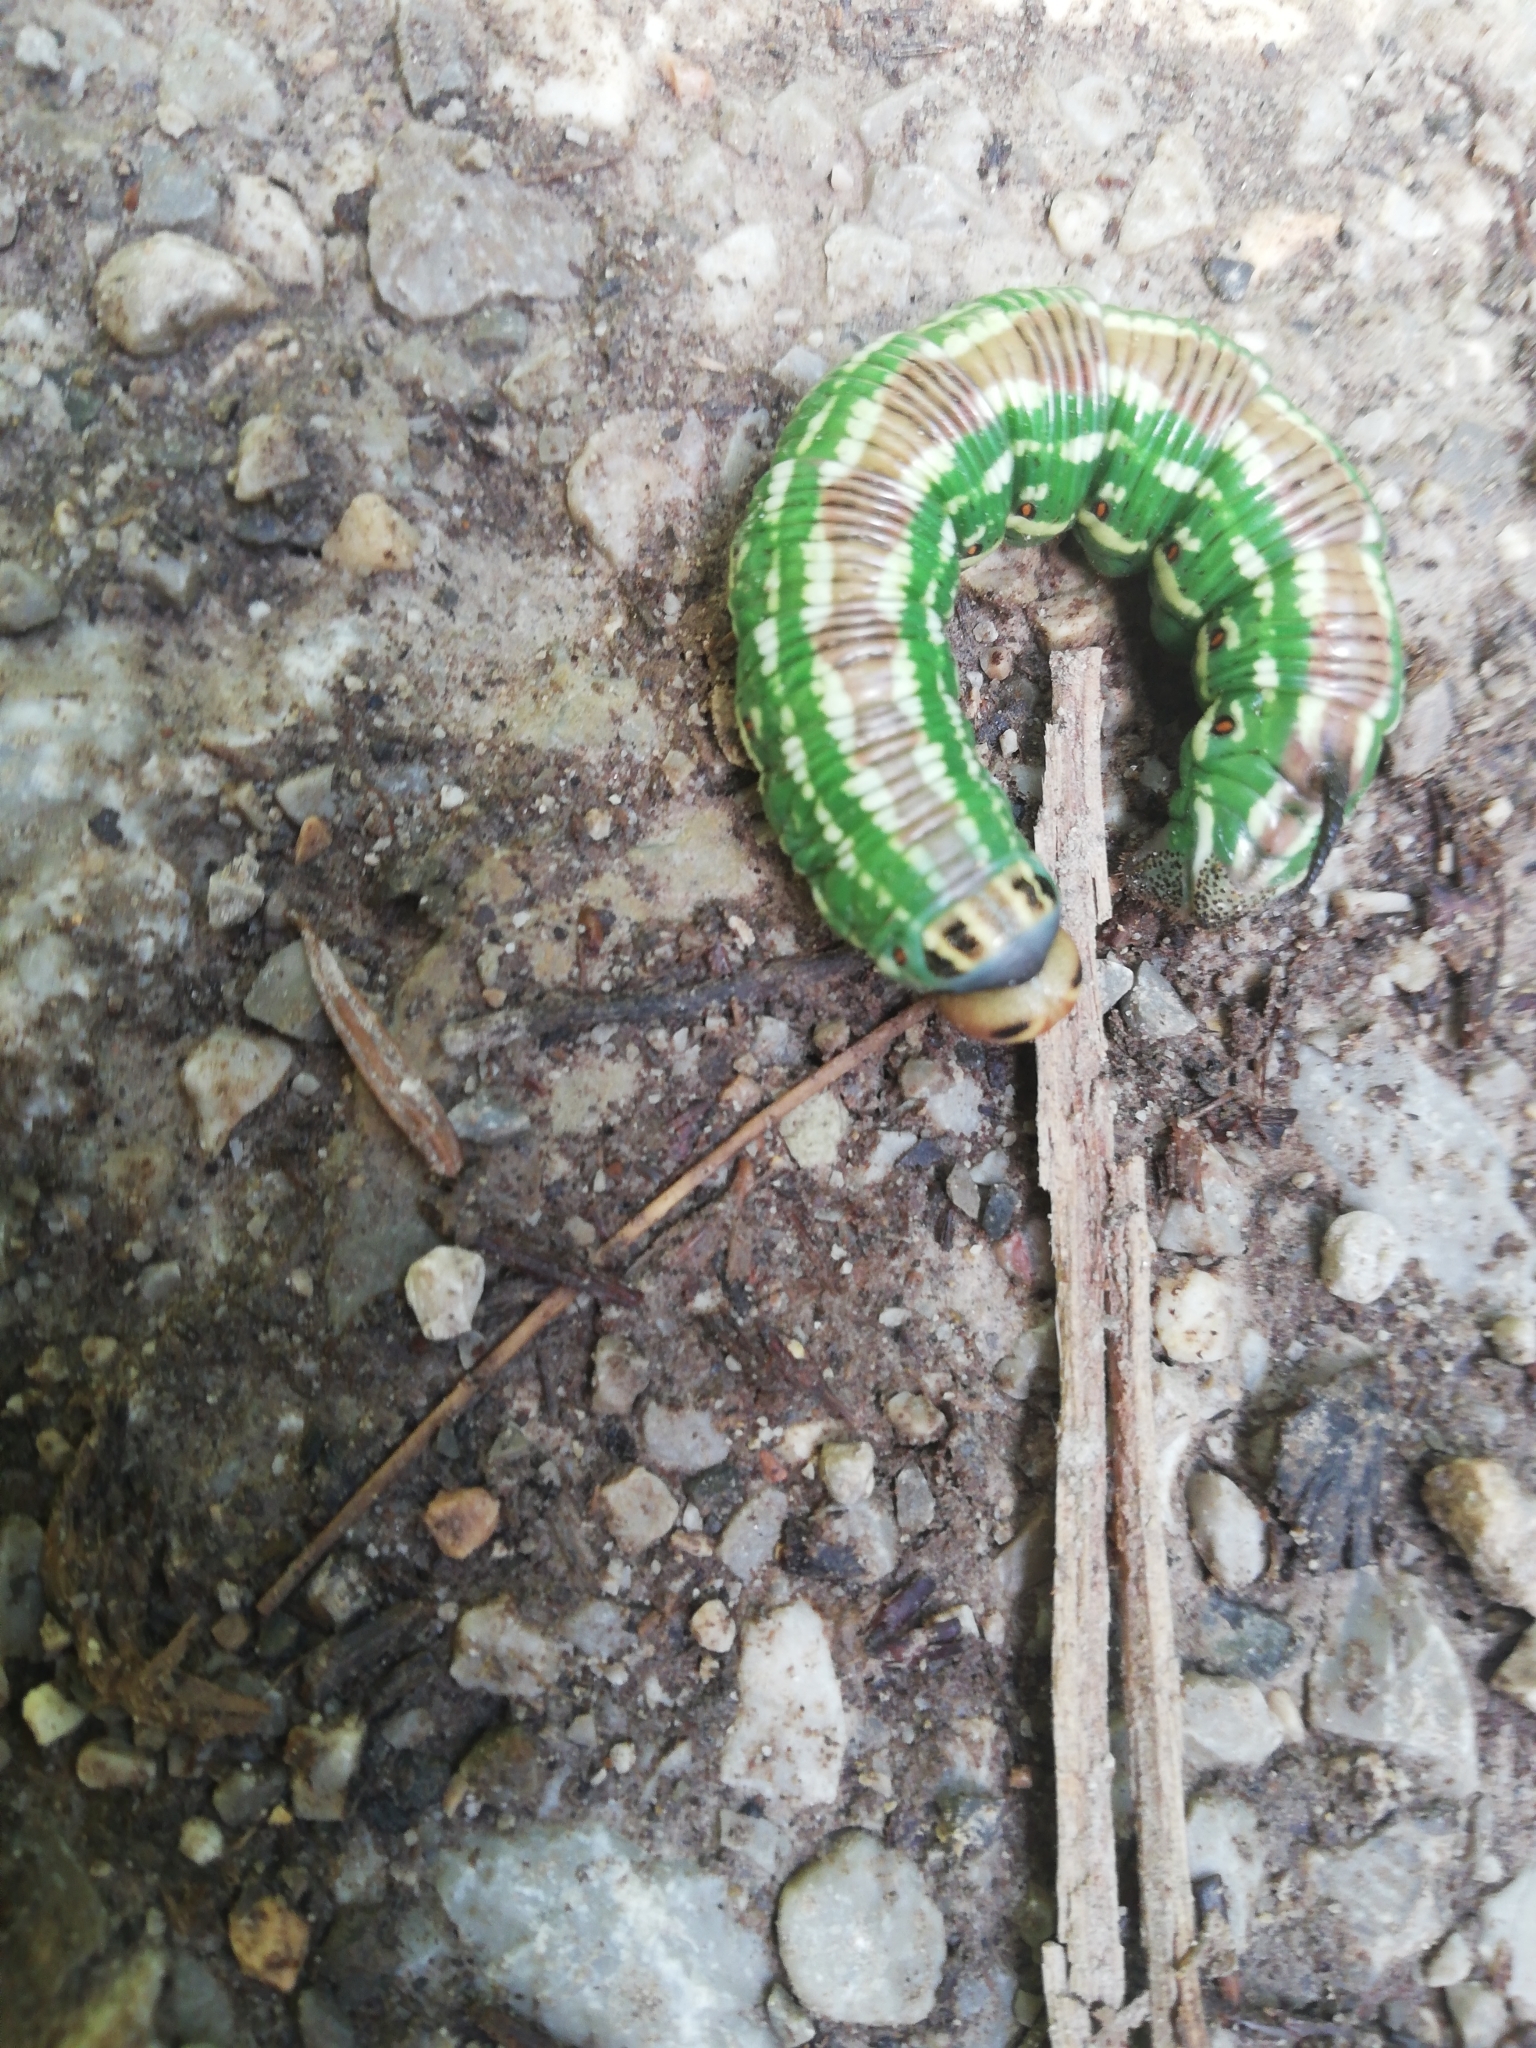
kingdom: Animalia
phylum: Arthropoda
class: Insecta
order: Lepidoptera
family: Sphingidae
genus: Sphinx
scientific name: Sphinx pinastri
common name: Pine hawk-moth
